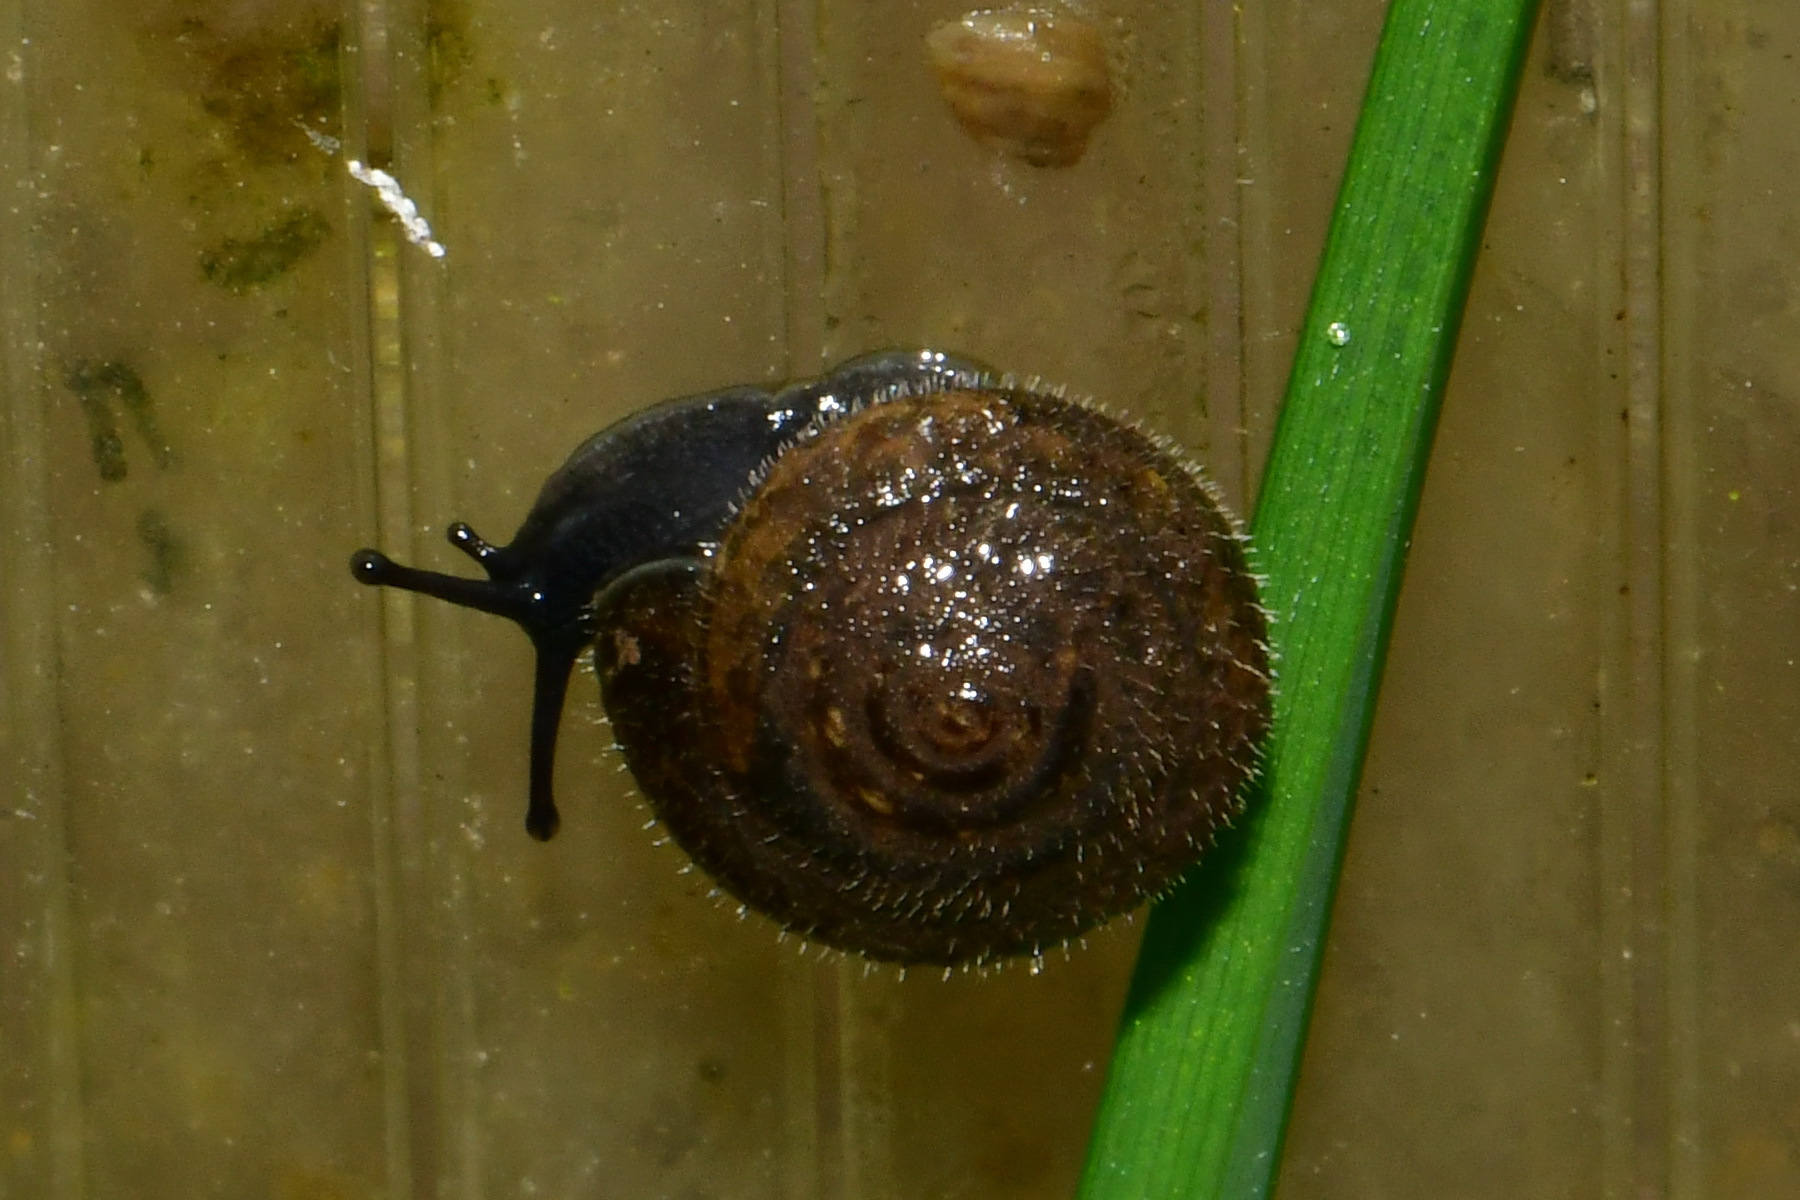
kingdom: Animalia
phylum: Mollusca
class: Gastropoda
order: Stylommatophora
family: Hygromiidae
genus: Trochulus
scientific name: Trochulus hispidus
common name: Hairy snail
